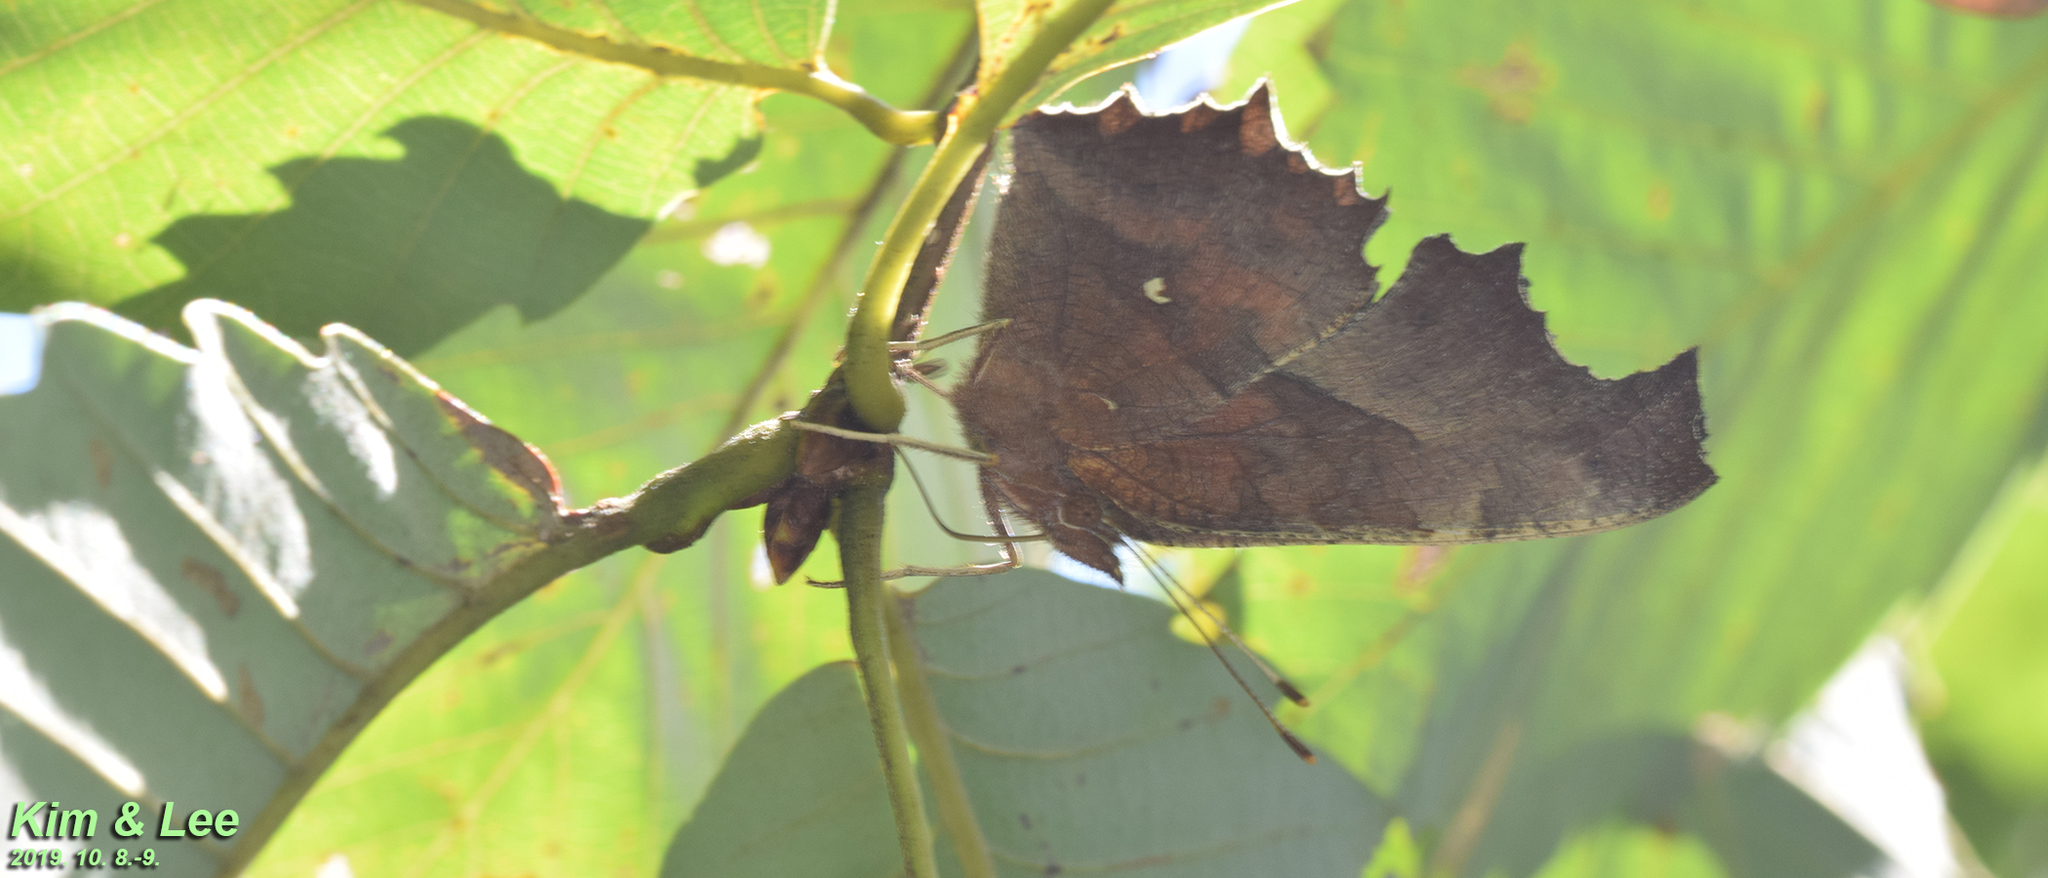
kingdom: Animalia
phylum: Arthropoda
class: Insecta
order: Lepidoptera
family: Nymphalidae
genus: Polygonia
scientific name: Polygonia c-aureum
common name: Asian comma
